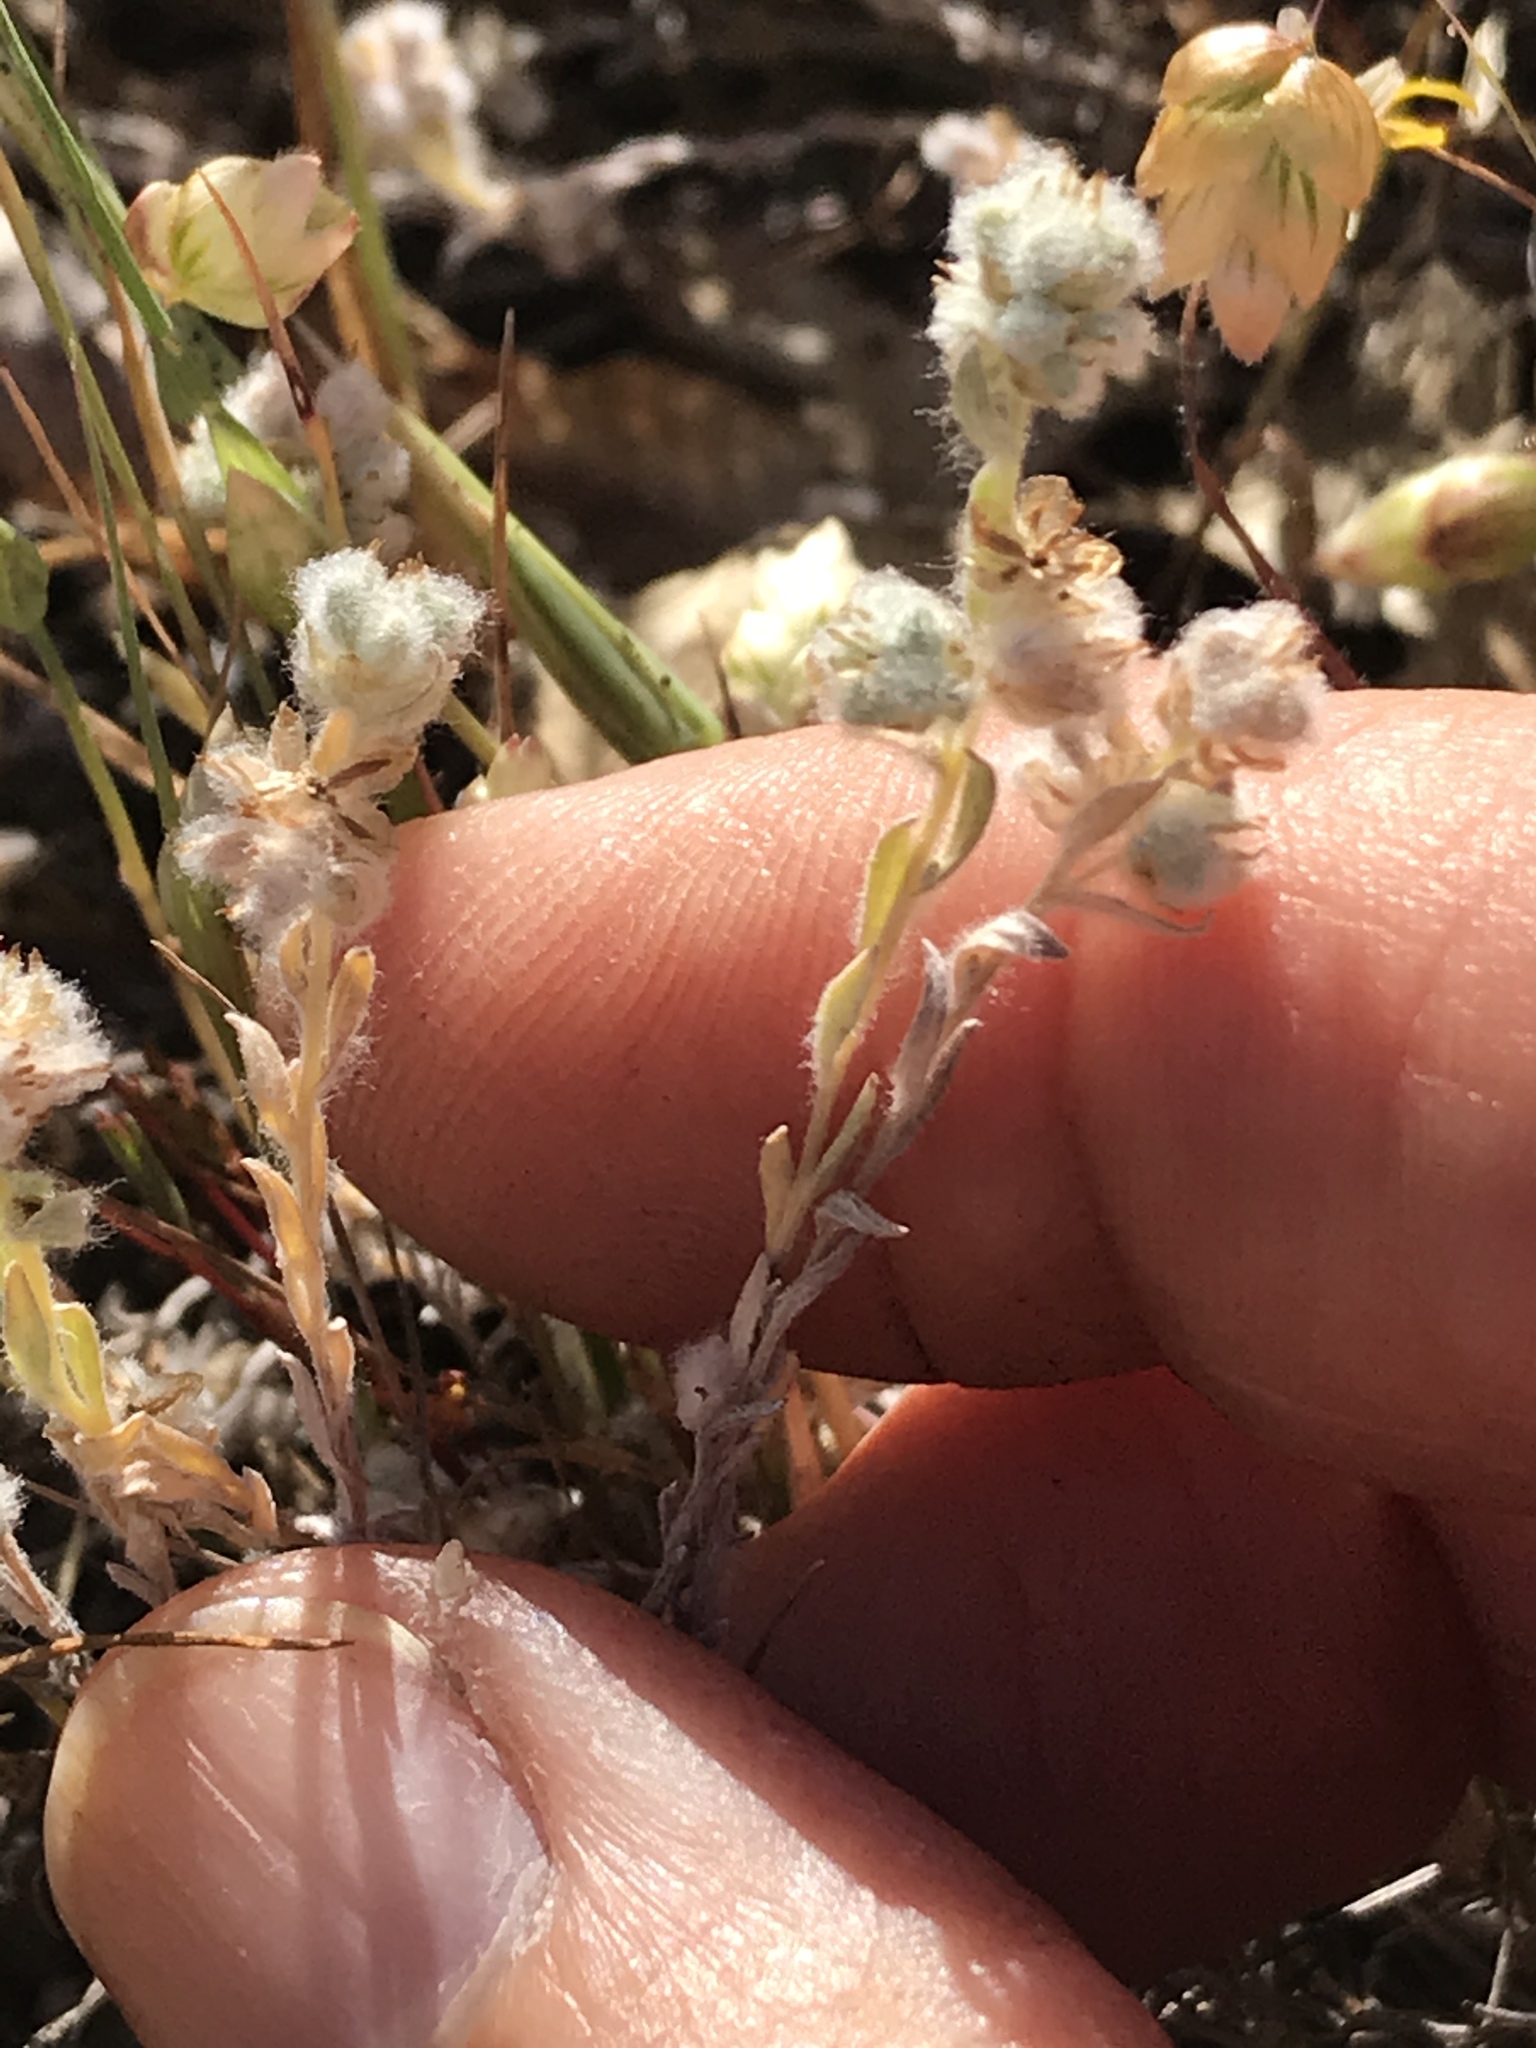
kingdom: Plantae
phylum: Tracheophyta
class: Magnoliopsida
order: Asterales
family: Asteraceae
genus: Bombycilaena
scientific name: Bombycilaena californica
